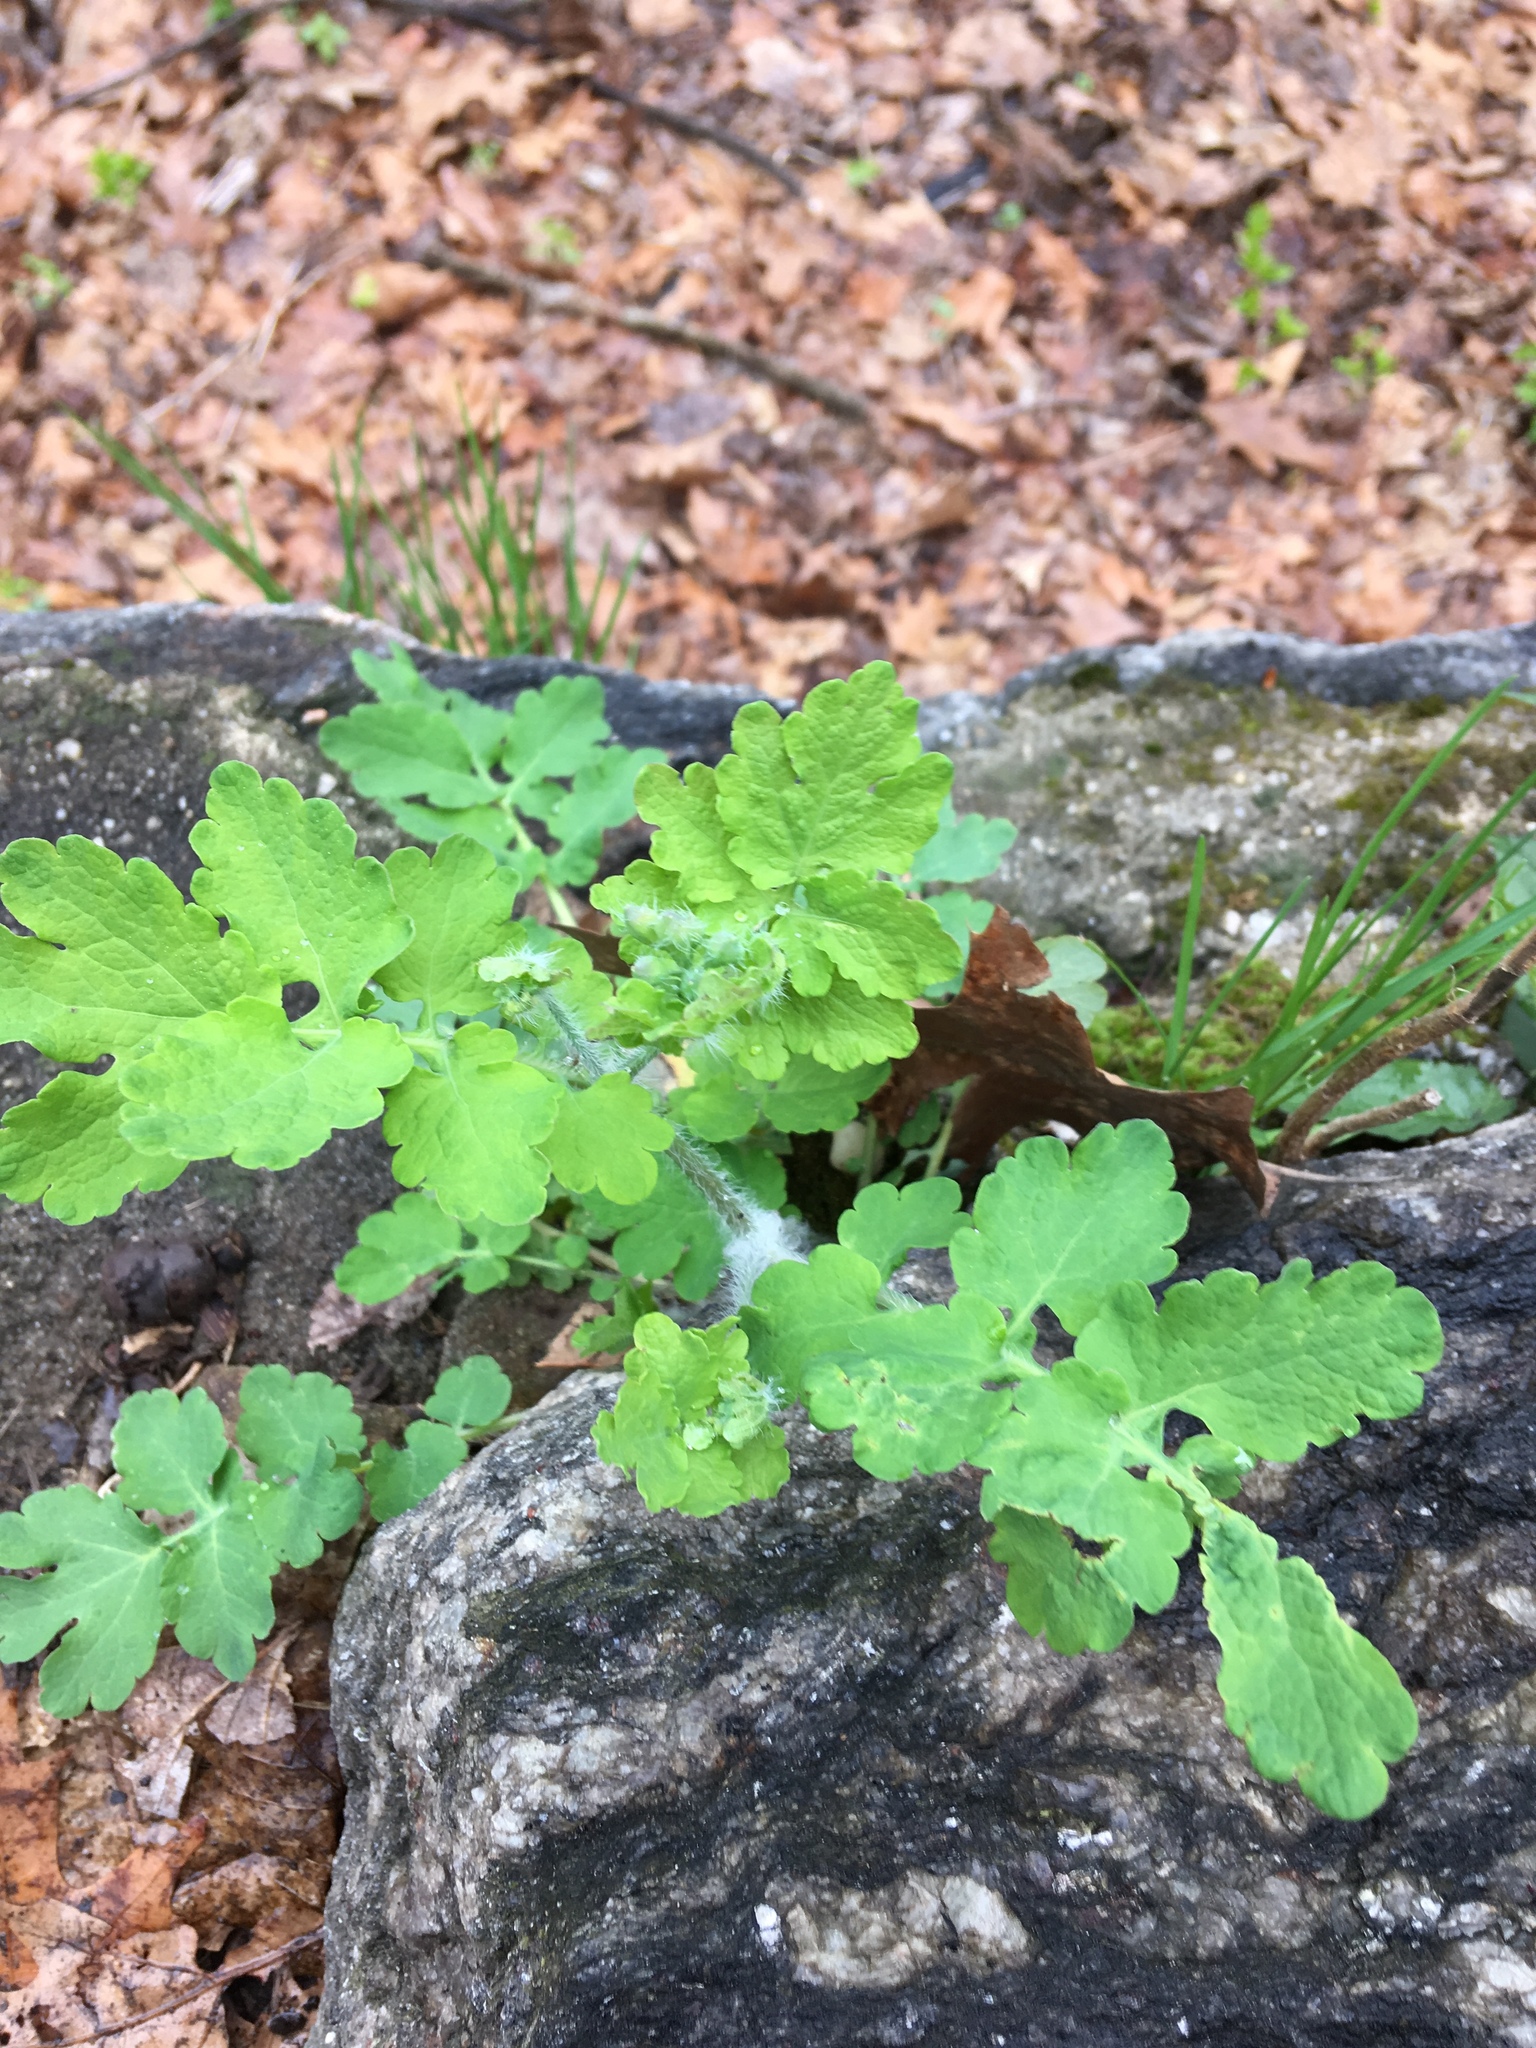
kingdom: Plantae
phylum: Tracheophyta
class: Magnoliopsida
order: Ranunculales
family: Papaveraceae
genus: Stylophorum
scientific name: Stylophorum diphyllum
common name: Celandine poppy
